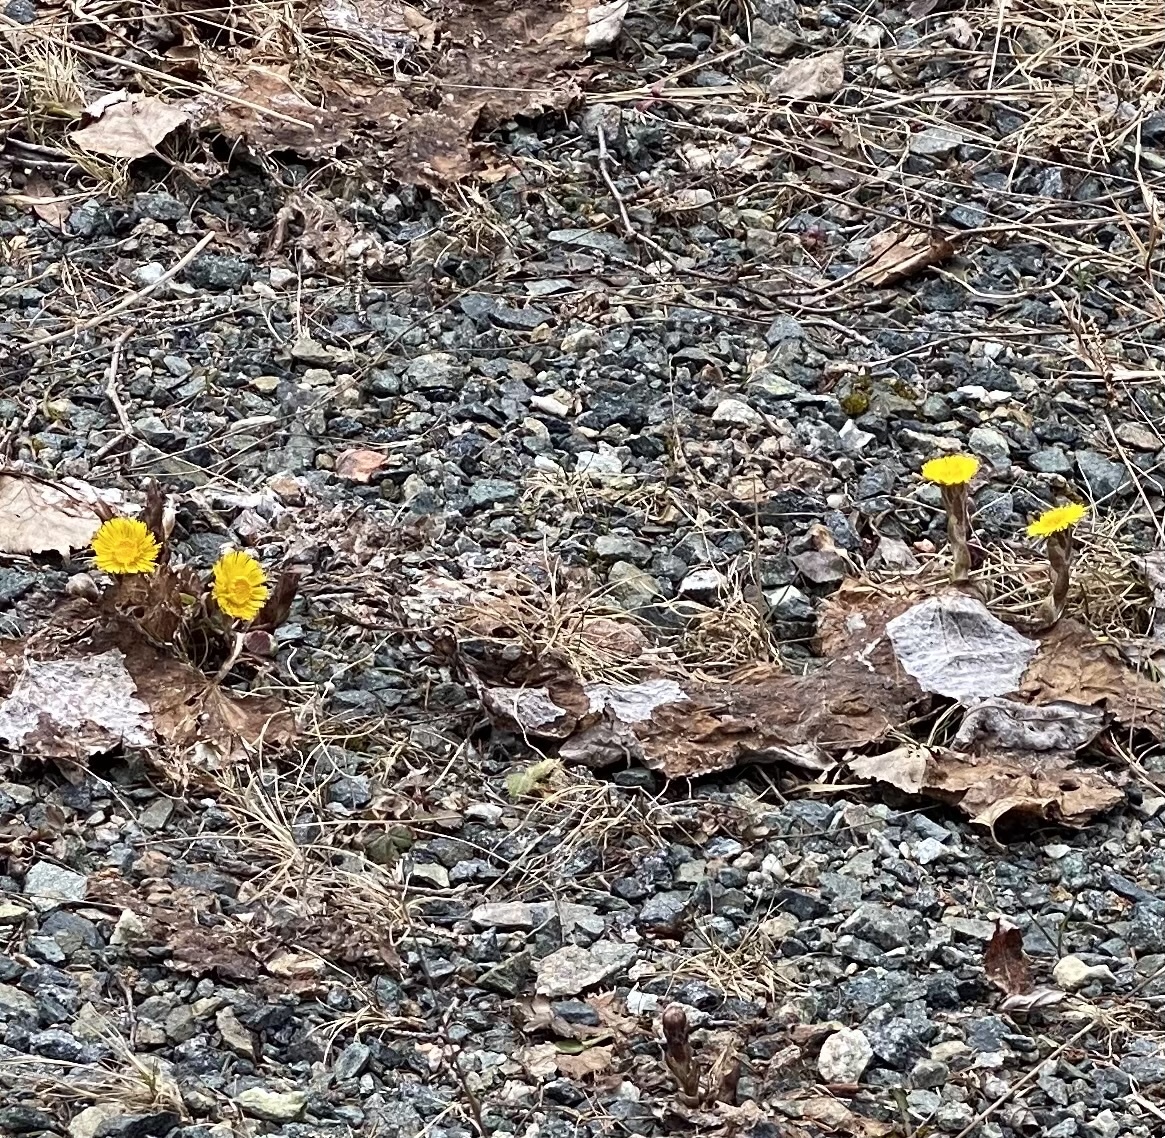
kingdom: Plantae
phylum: Tracheophyta
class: Magnoliopsida
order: Asterales
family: Asteraceae
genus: Tussilago
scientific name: Tussilago farfara
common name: Coltsfoot
